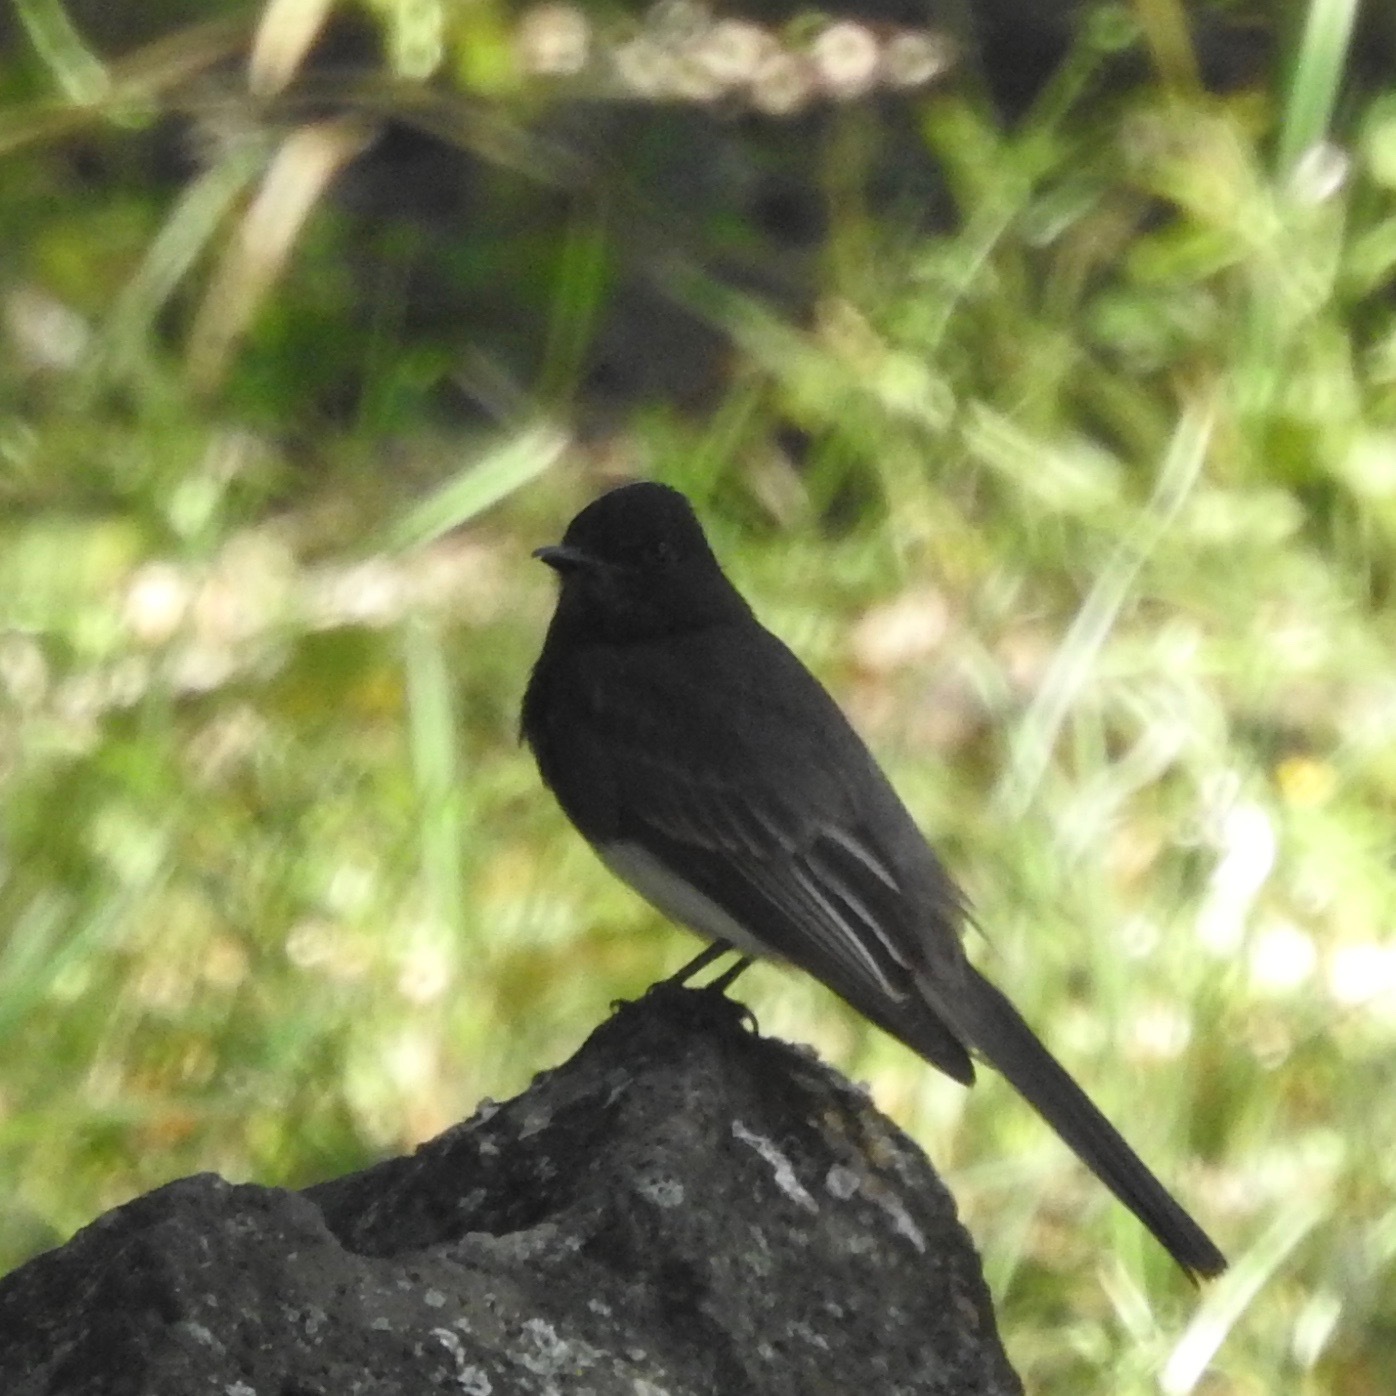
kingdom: Animalia
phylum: Chordata
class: Aves
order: Passeriformes
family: Tyrannidae
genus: Sayornis
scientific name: Sayornis nigricans
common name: Black phoebe
